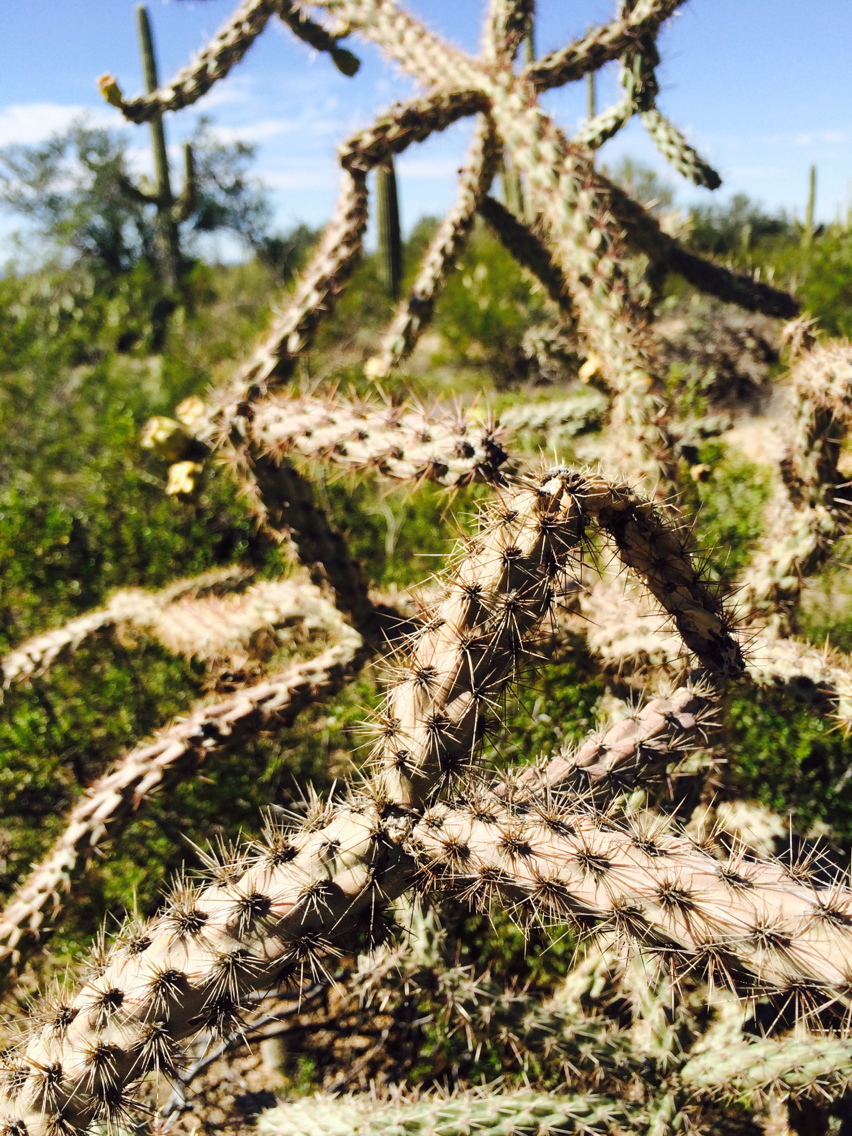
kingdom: Plantae
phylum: Tracheophyta
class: Magnoliopsida
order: Caryophyllales
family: Cactaceae
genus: Cylindropuntia
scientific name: Cylindropuntia imbricata
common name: Candelabrum cactus
